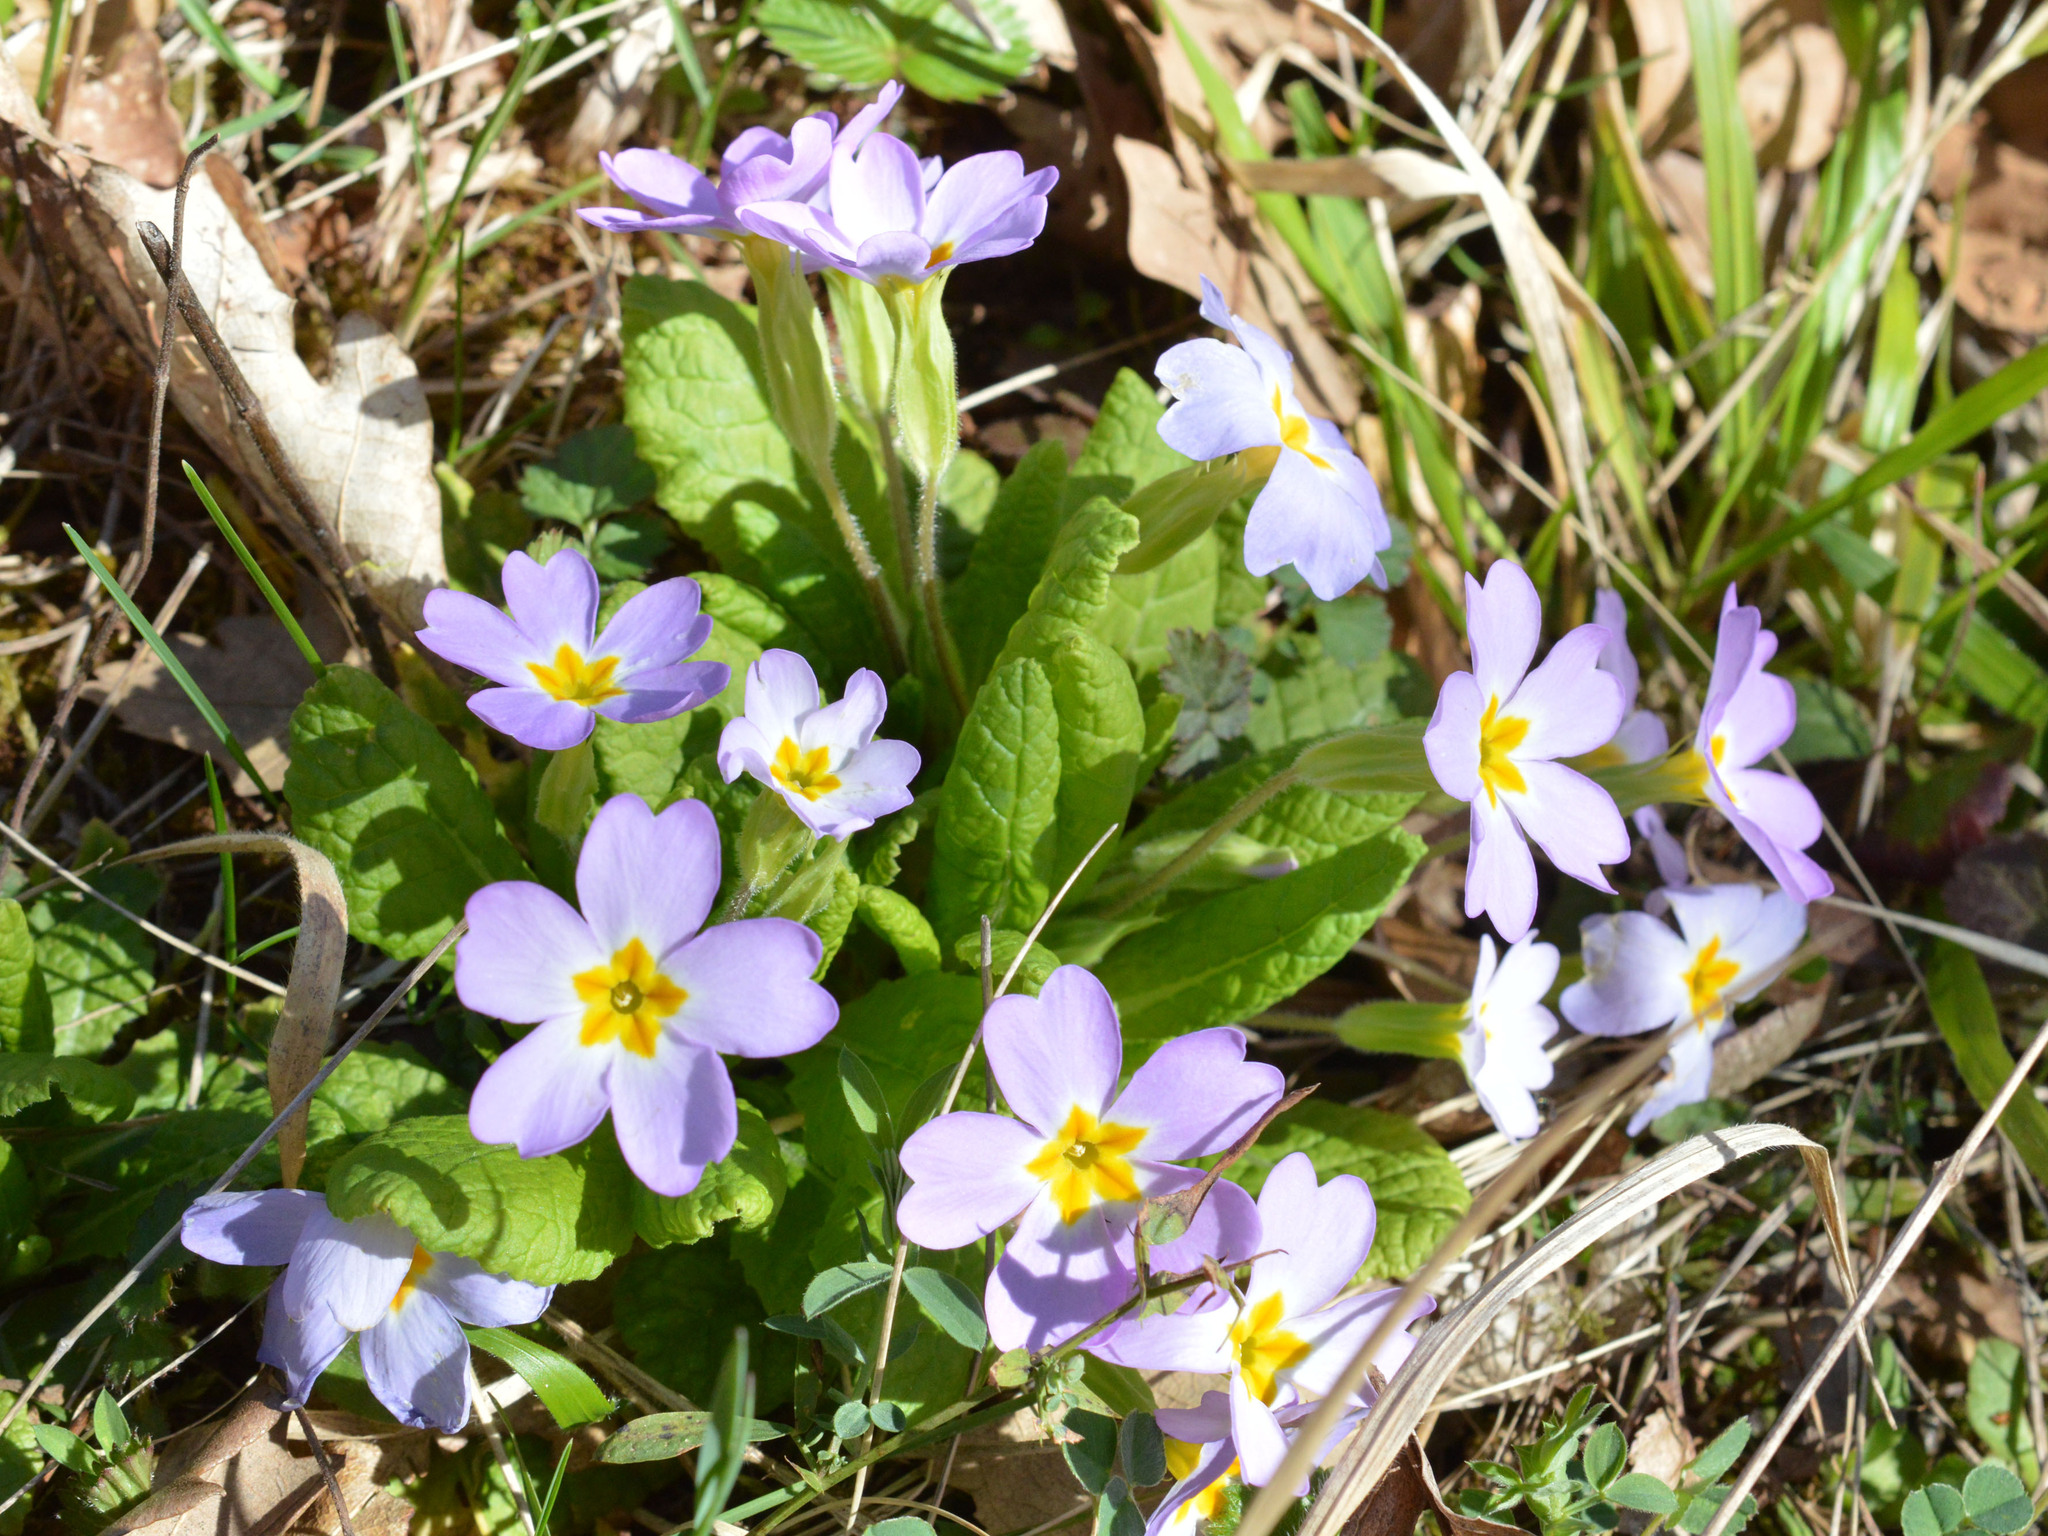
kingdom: Plantae
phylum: Tracheophyta
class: Magnoliopsida
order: Ericales
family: Primulaceae
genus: Primula
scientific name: Primula vulgaris
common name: Primrose
